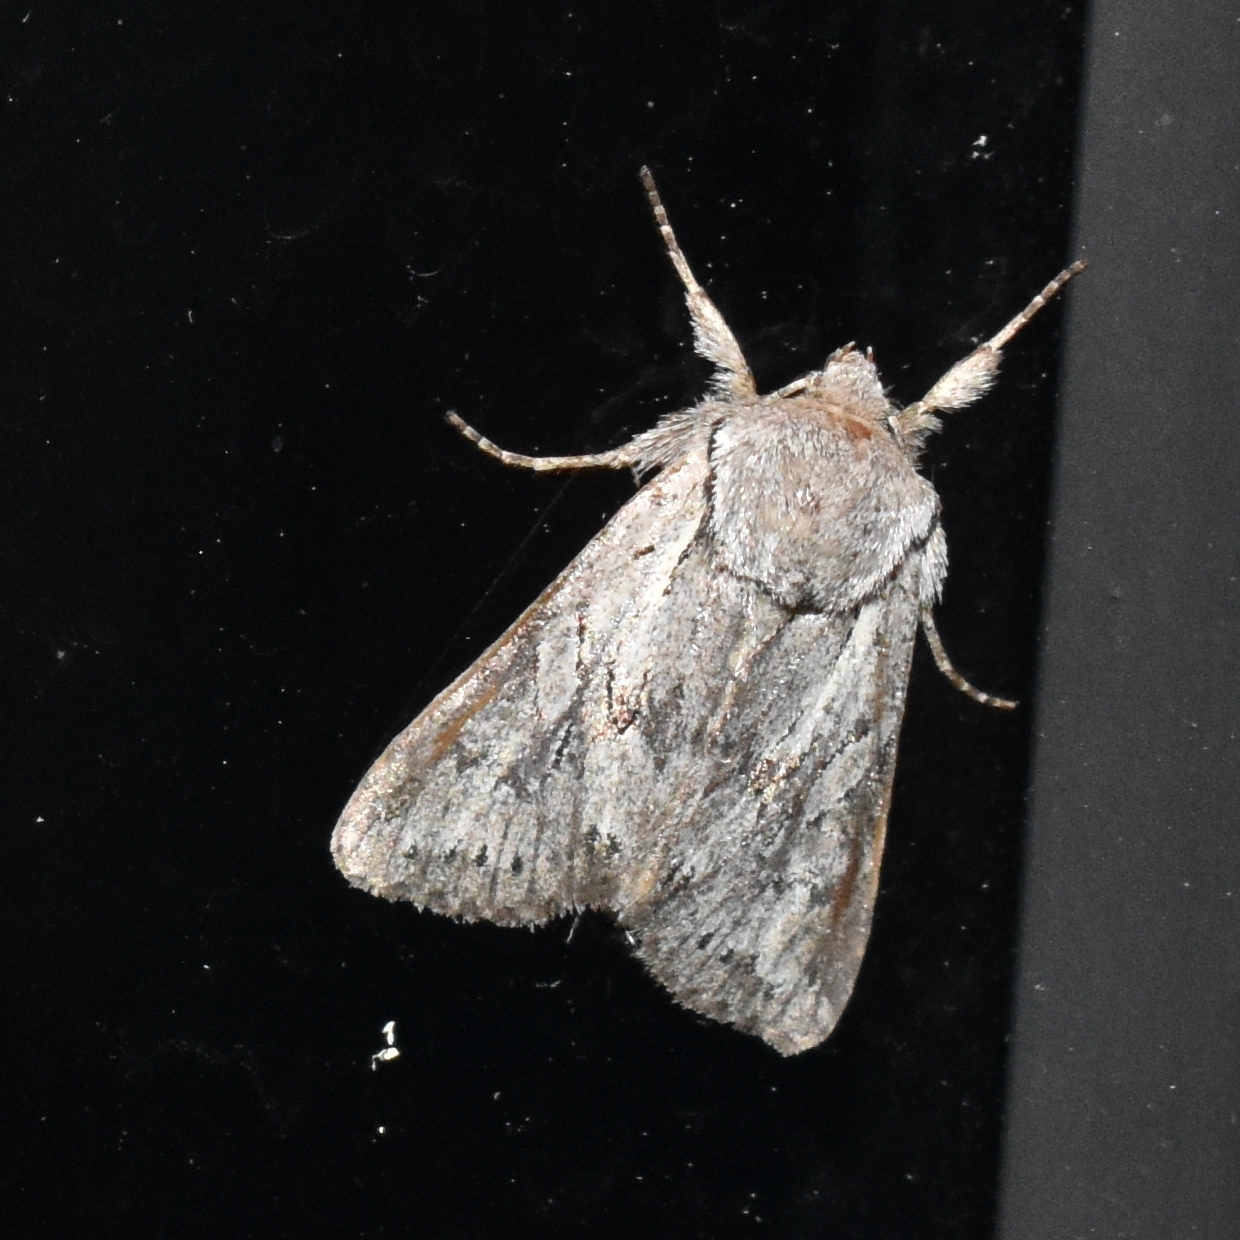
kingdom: Animalia
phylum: Arthropoda
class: Insecta
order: Lepidoptera
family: Noctuidae
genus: Lacinipolia
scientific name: Lacinipolia patalis
